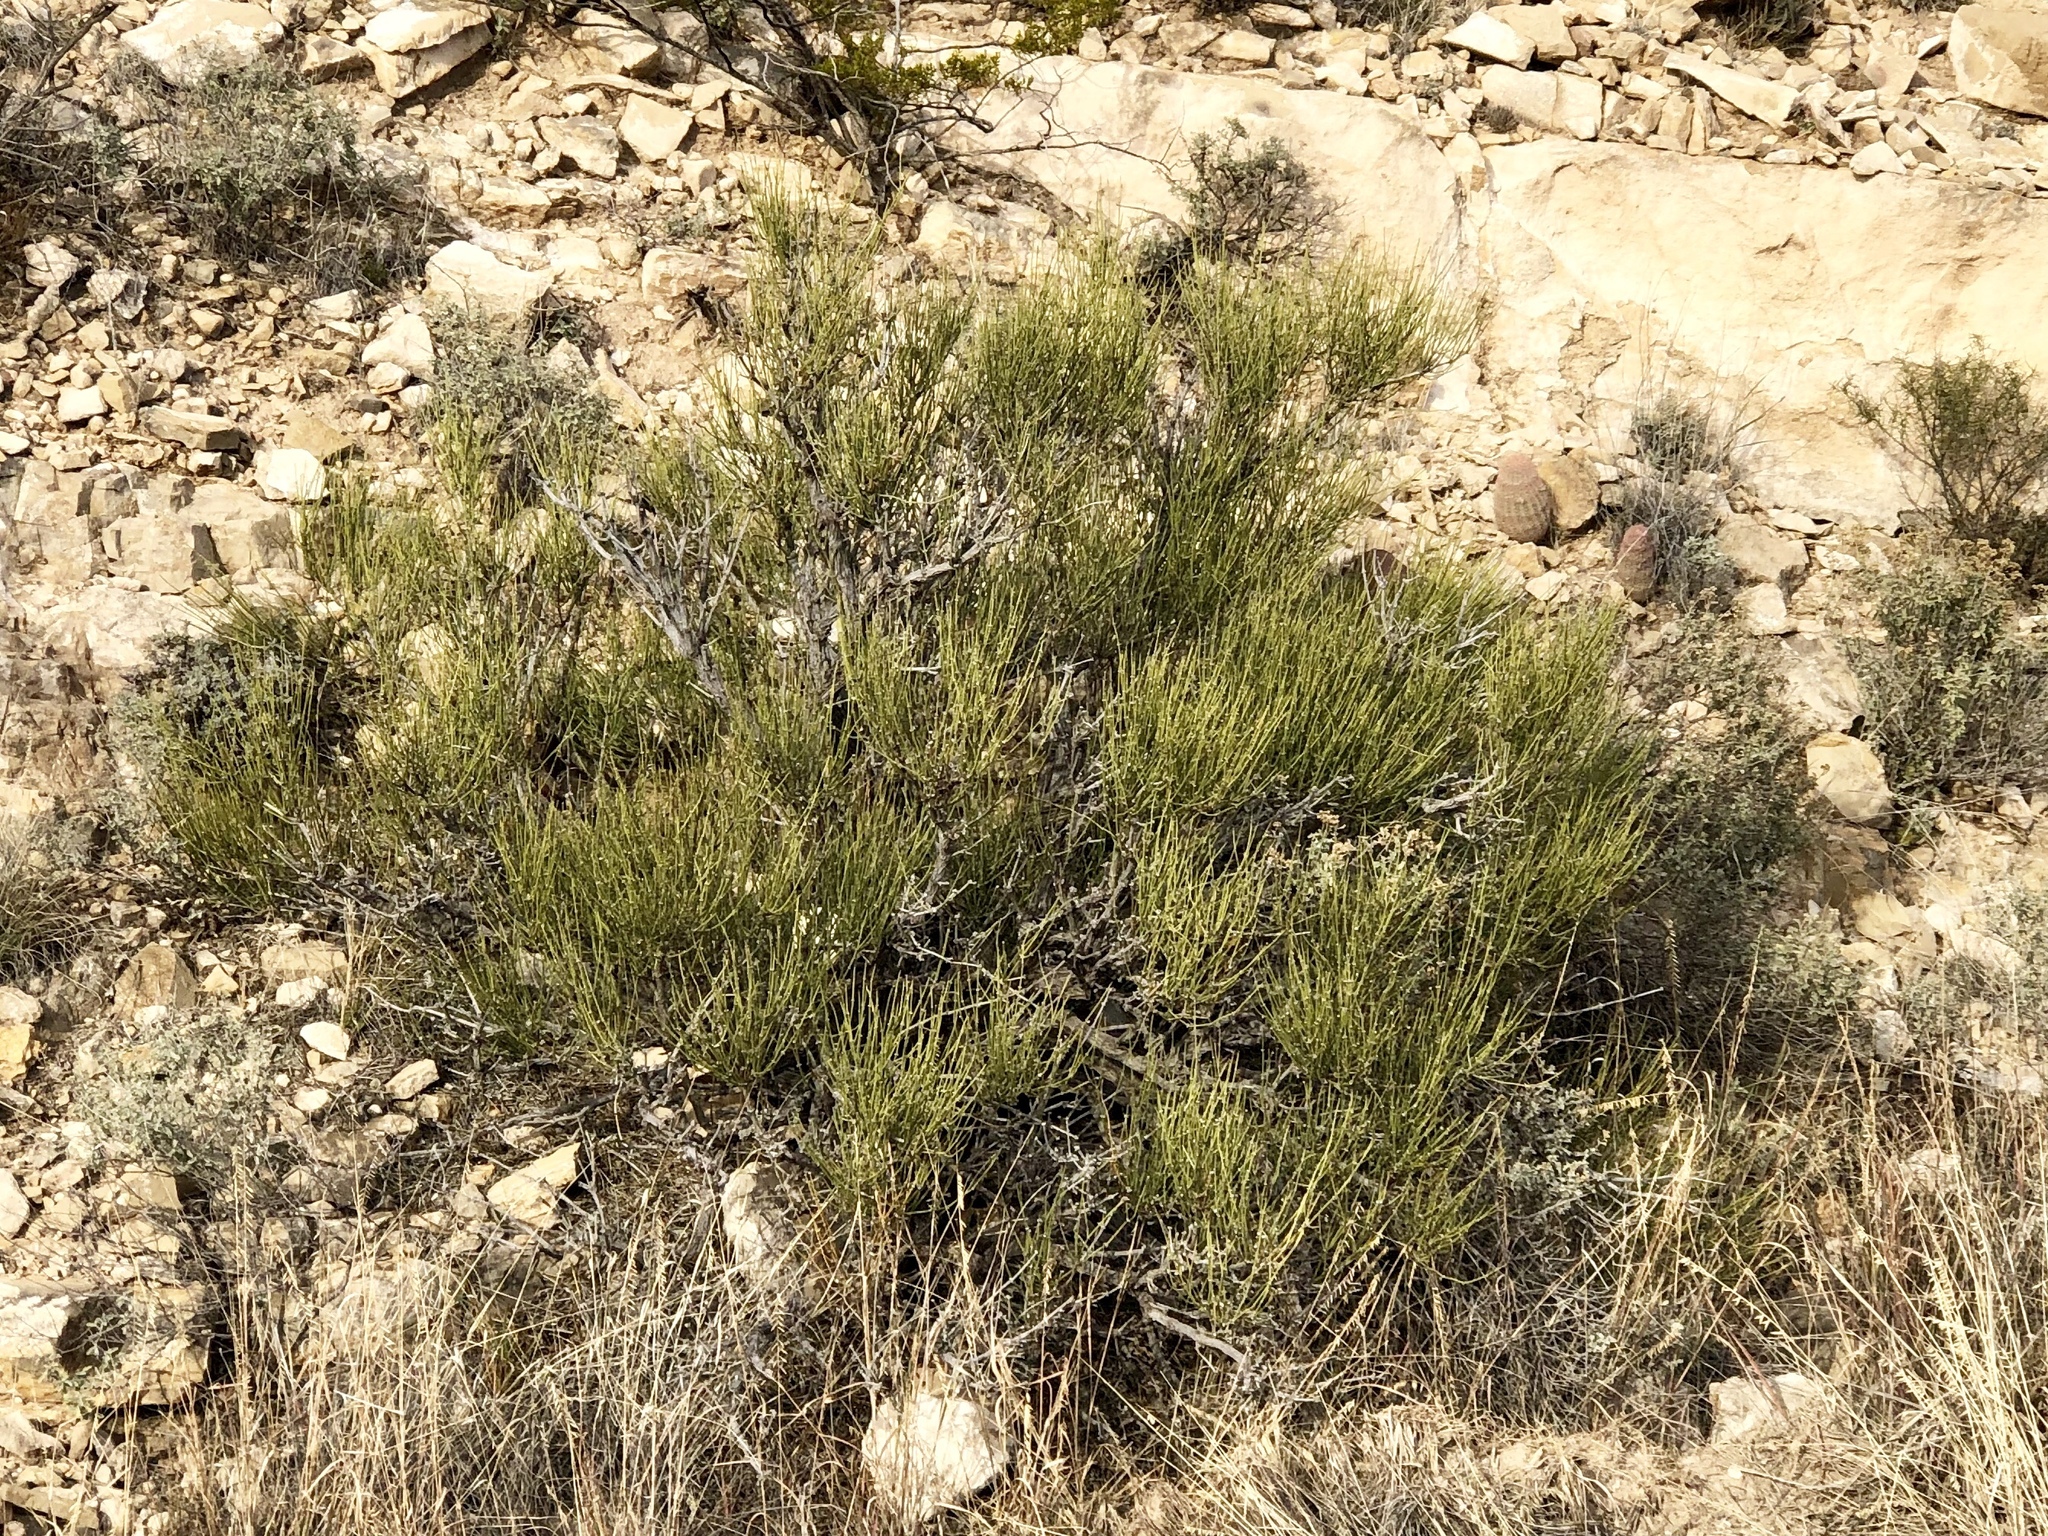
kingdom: Plantae
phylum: Tracheophyta
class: Gnetopsida
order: Ephedrales
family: Ephedraceae
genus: Ephedra
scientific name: Ephedra aspera
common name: Boundary ephedra
